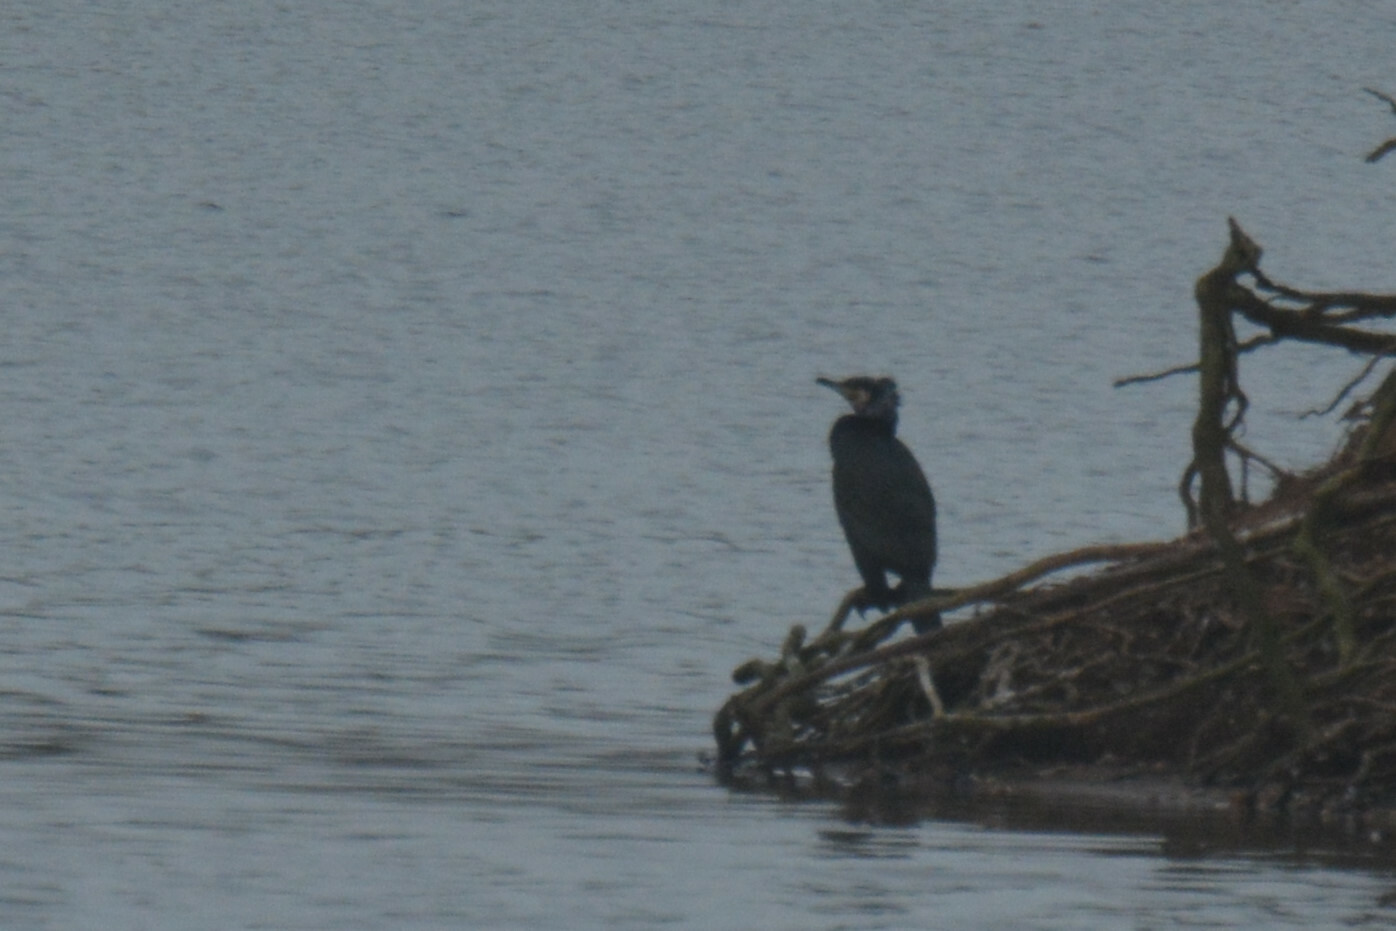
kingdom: Animalia
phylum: Chordata
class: Aves
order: Suliformes
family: Phalacrocoracidae
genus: Phalacrocorax
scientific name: Phalacrocorax carbo
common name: Great cormorant
